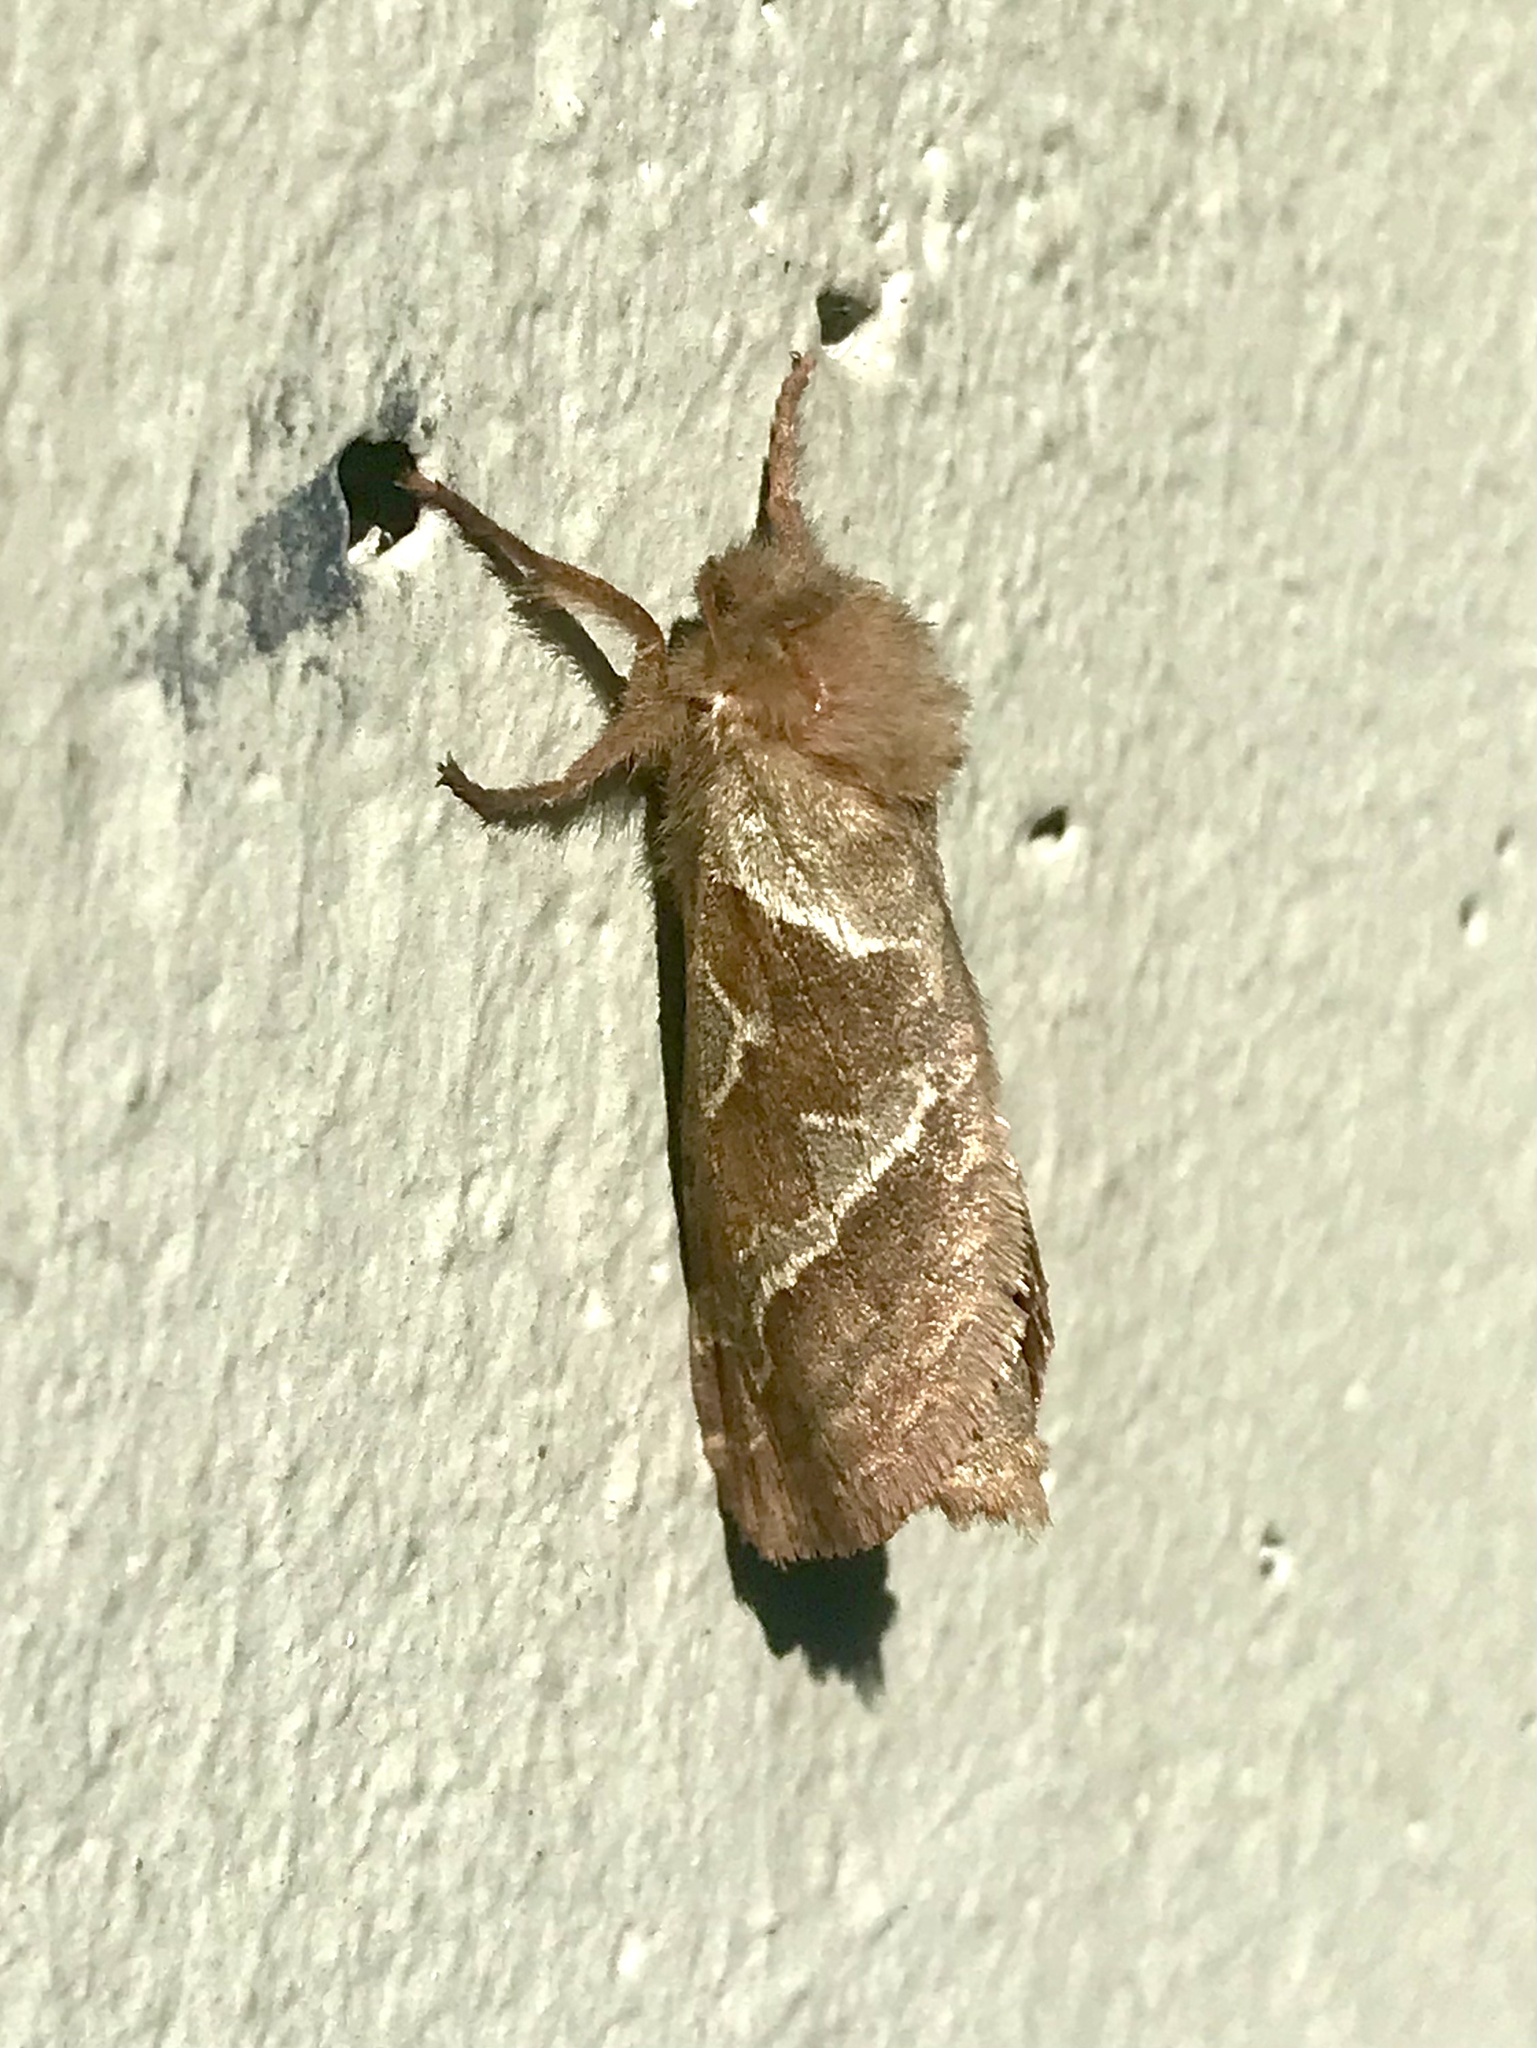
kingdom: Animalia
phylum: Arthropoda
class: Insecta
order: Lepidoptera
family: Hepialidae
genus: Triodia
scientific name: Triodia sylvina
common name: Orange swift
